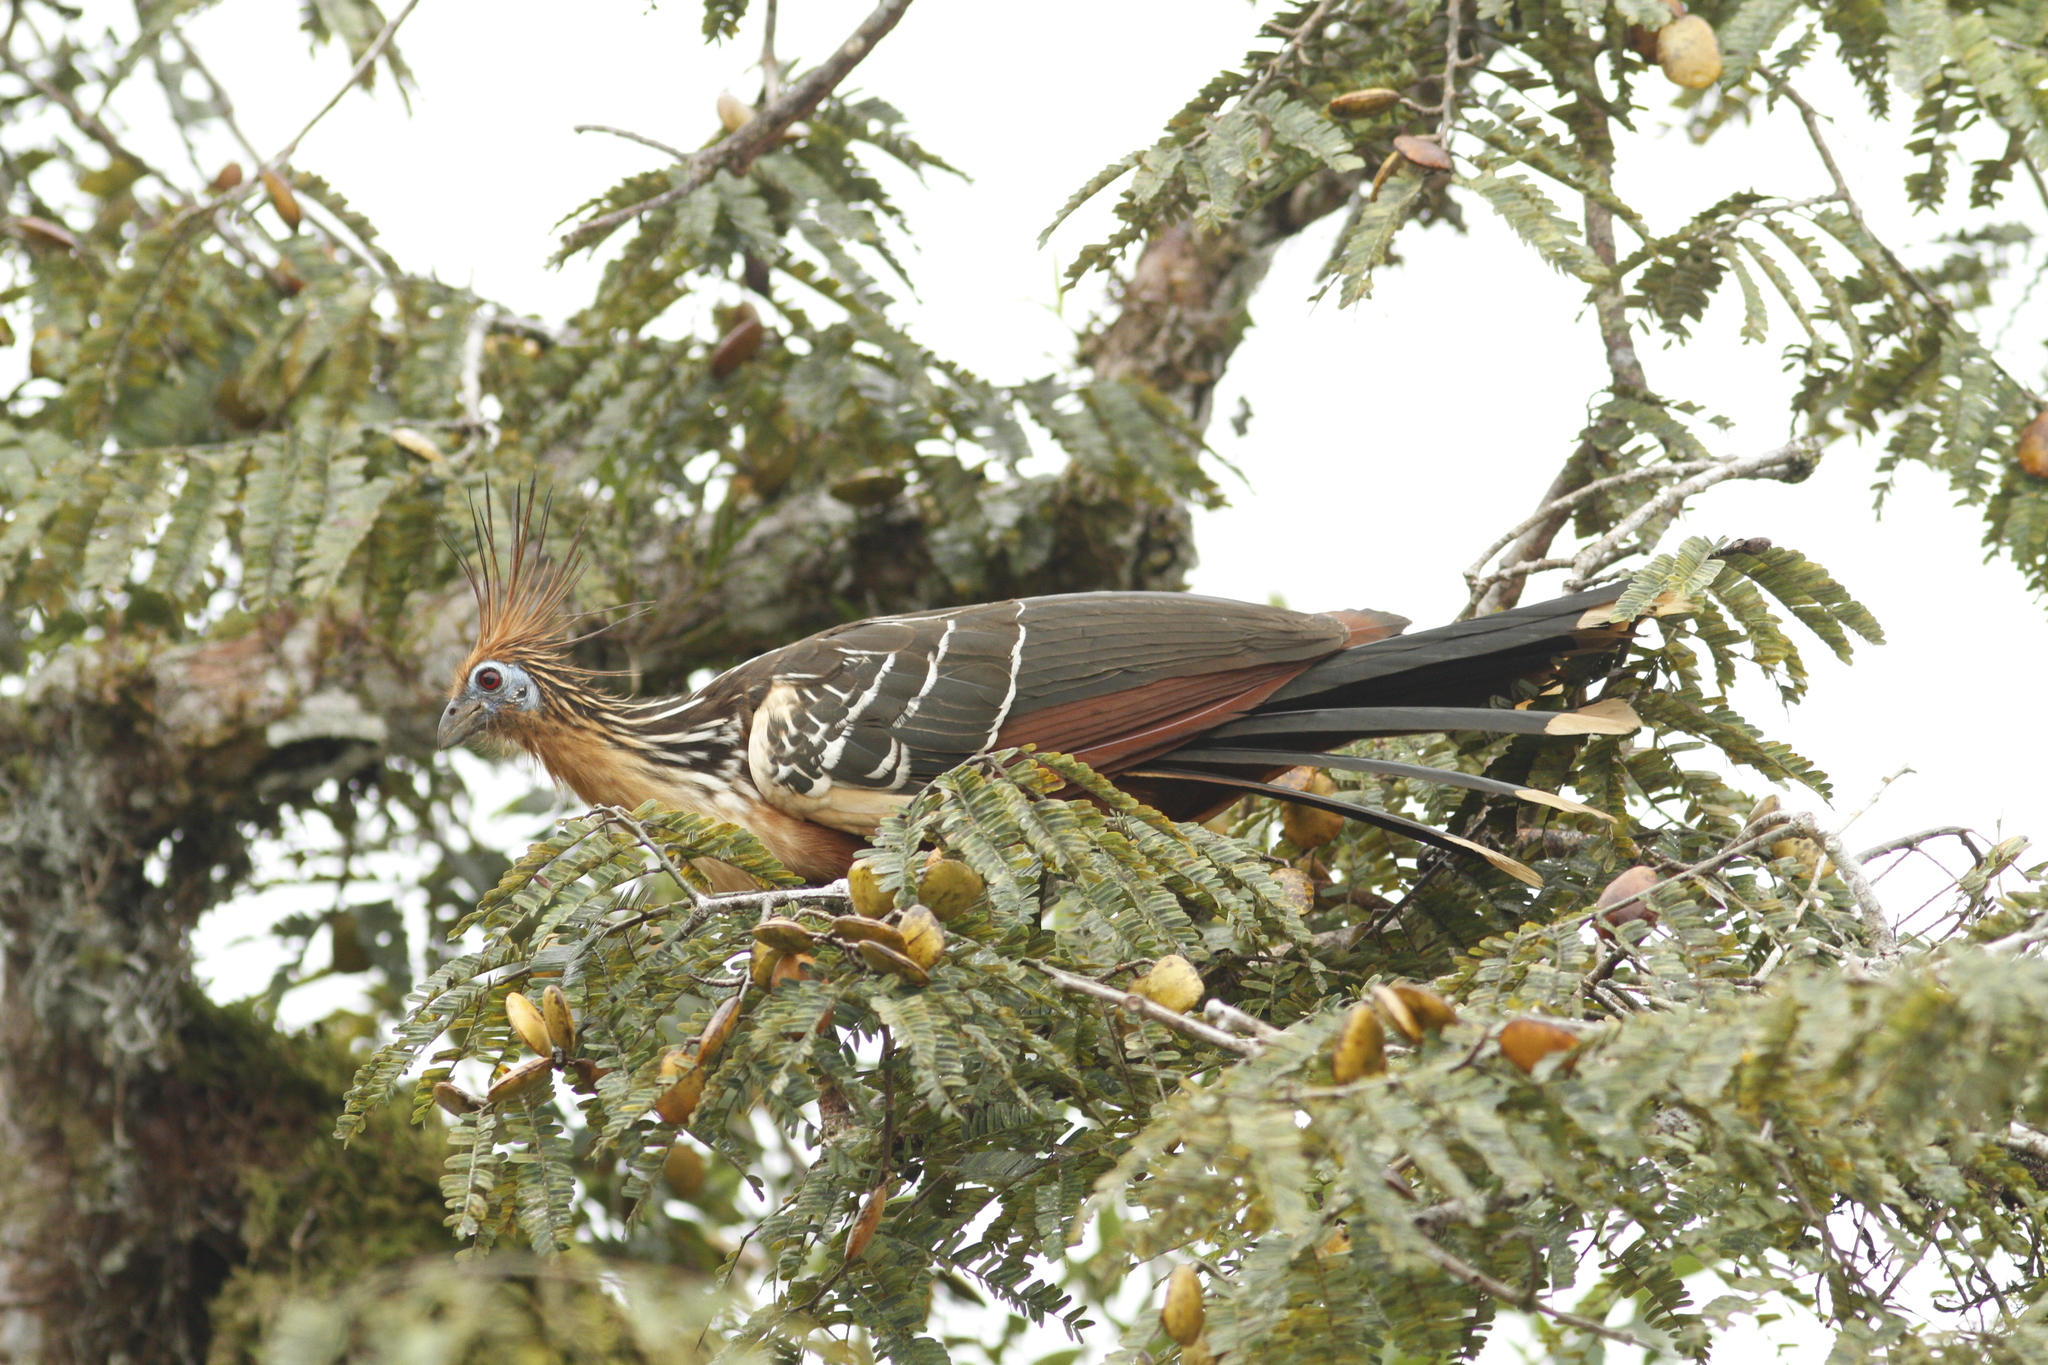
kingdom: Animalia
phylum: Chordata
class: Aves
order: Opisthocomiformes
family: Opisthocomidae
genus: Opisthocomus
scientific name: Opisthocomus hoazin
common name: Hoatzin
